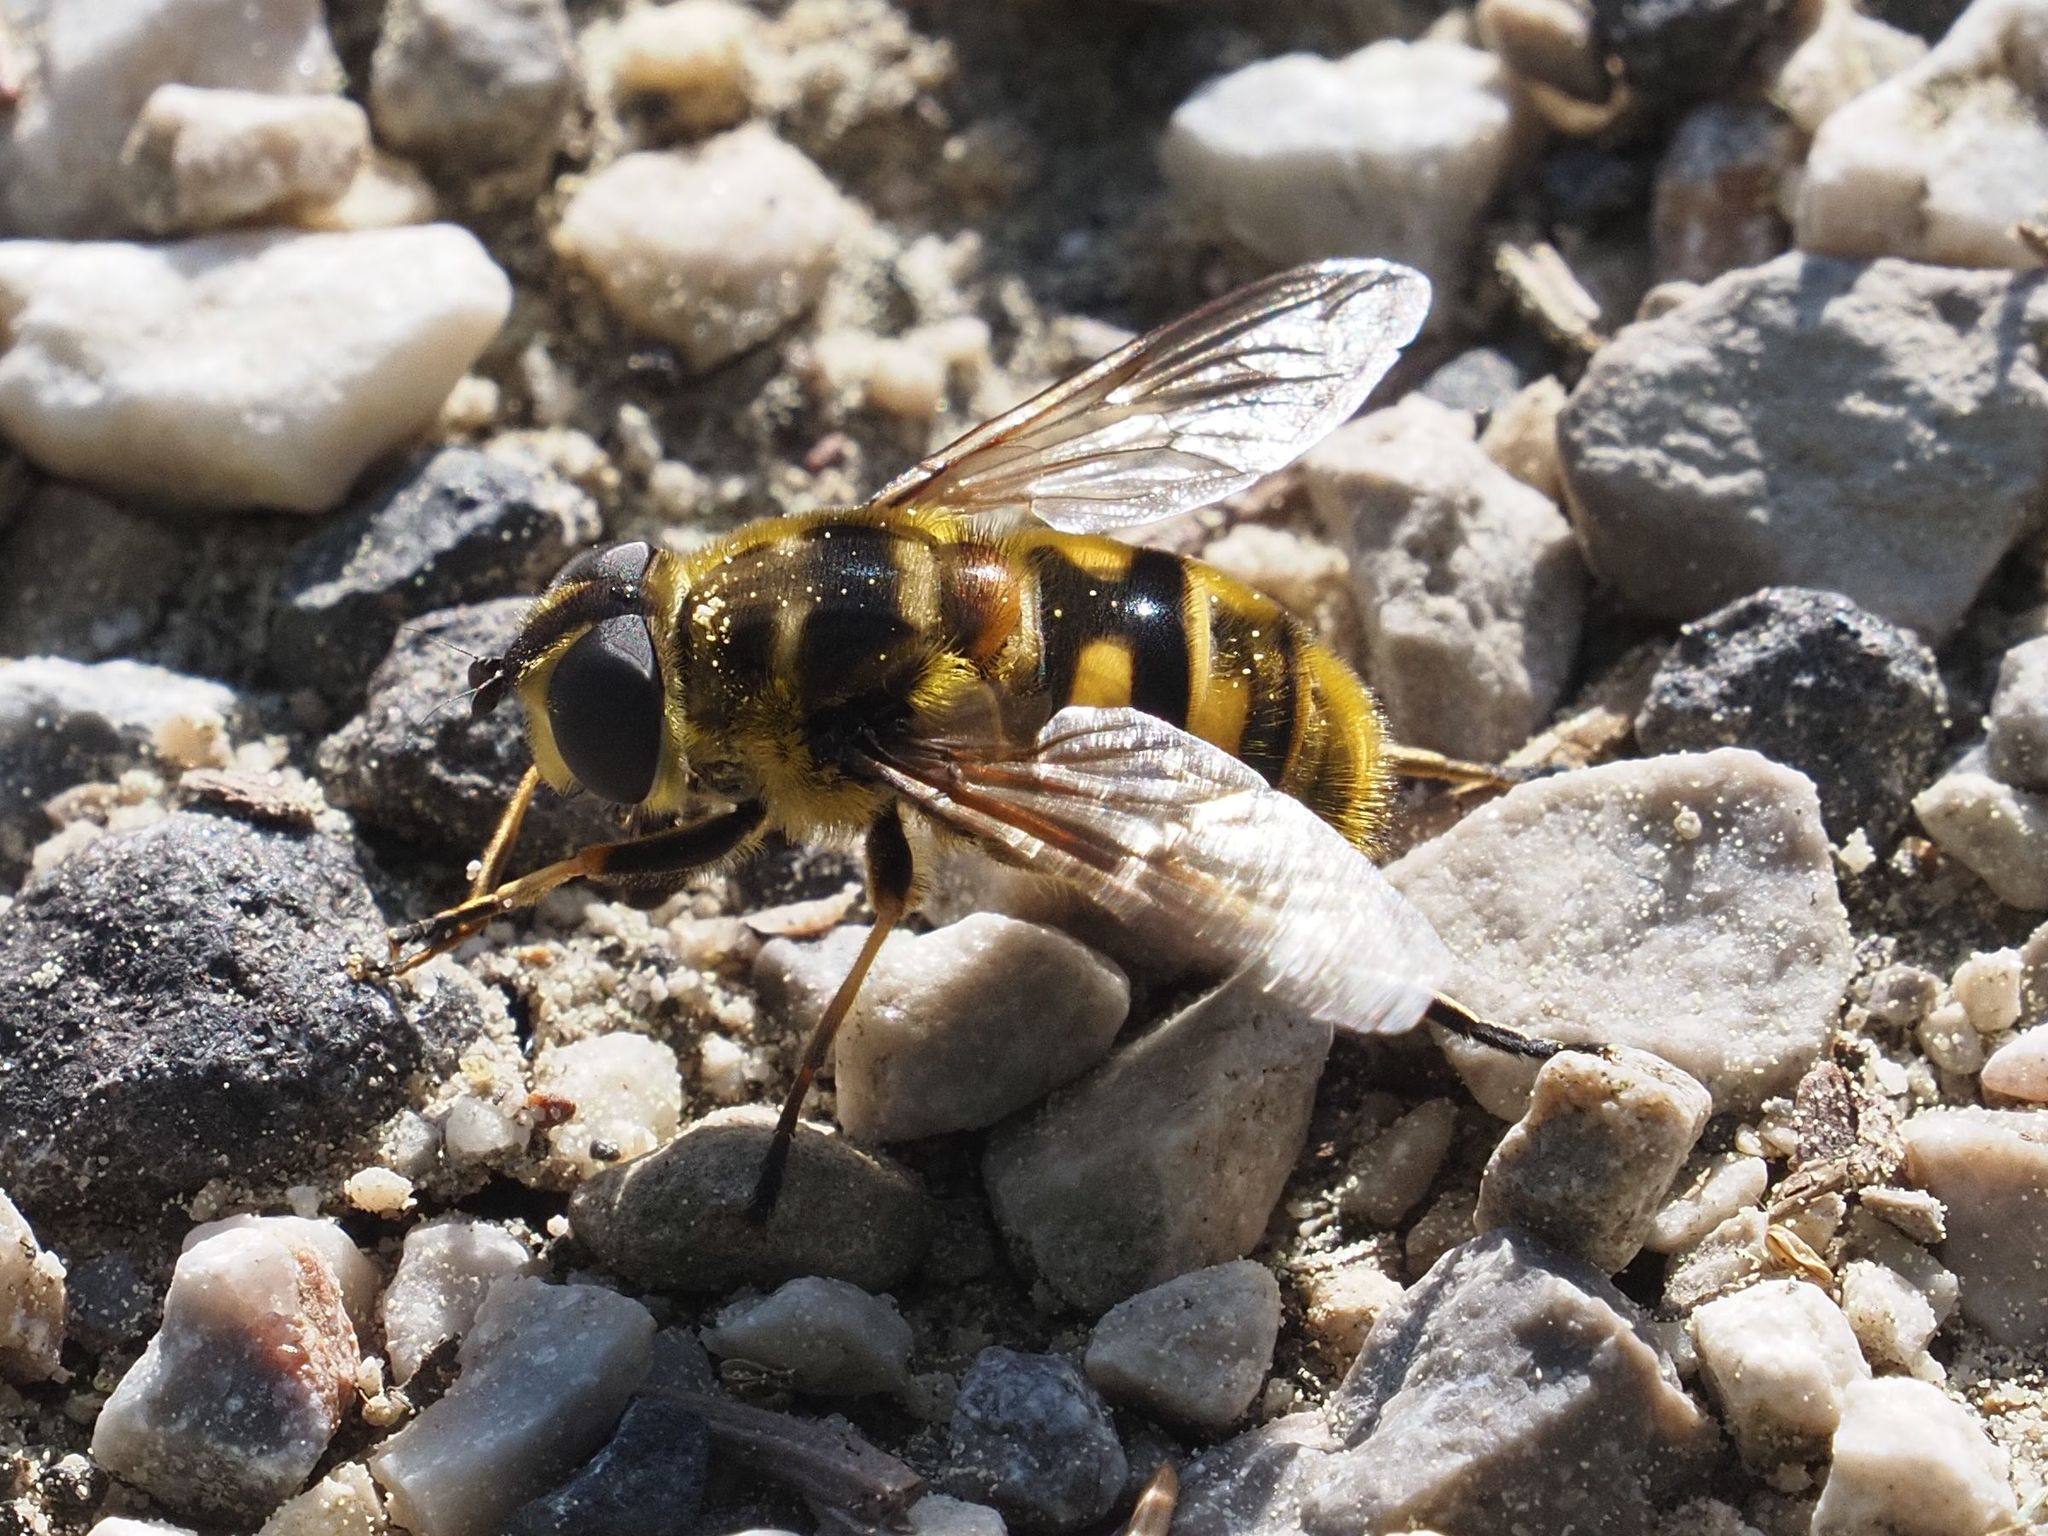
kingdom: Animalia
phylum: Arthropoda
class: Insecta
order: Diptera
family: Syrphidae
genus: Myathropa
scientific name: Myathropa florea
